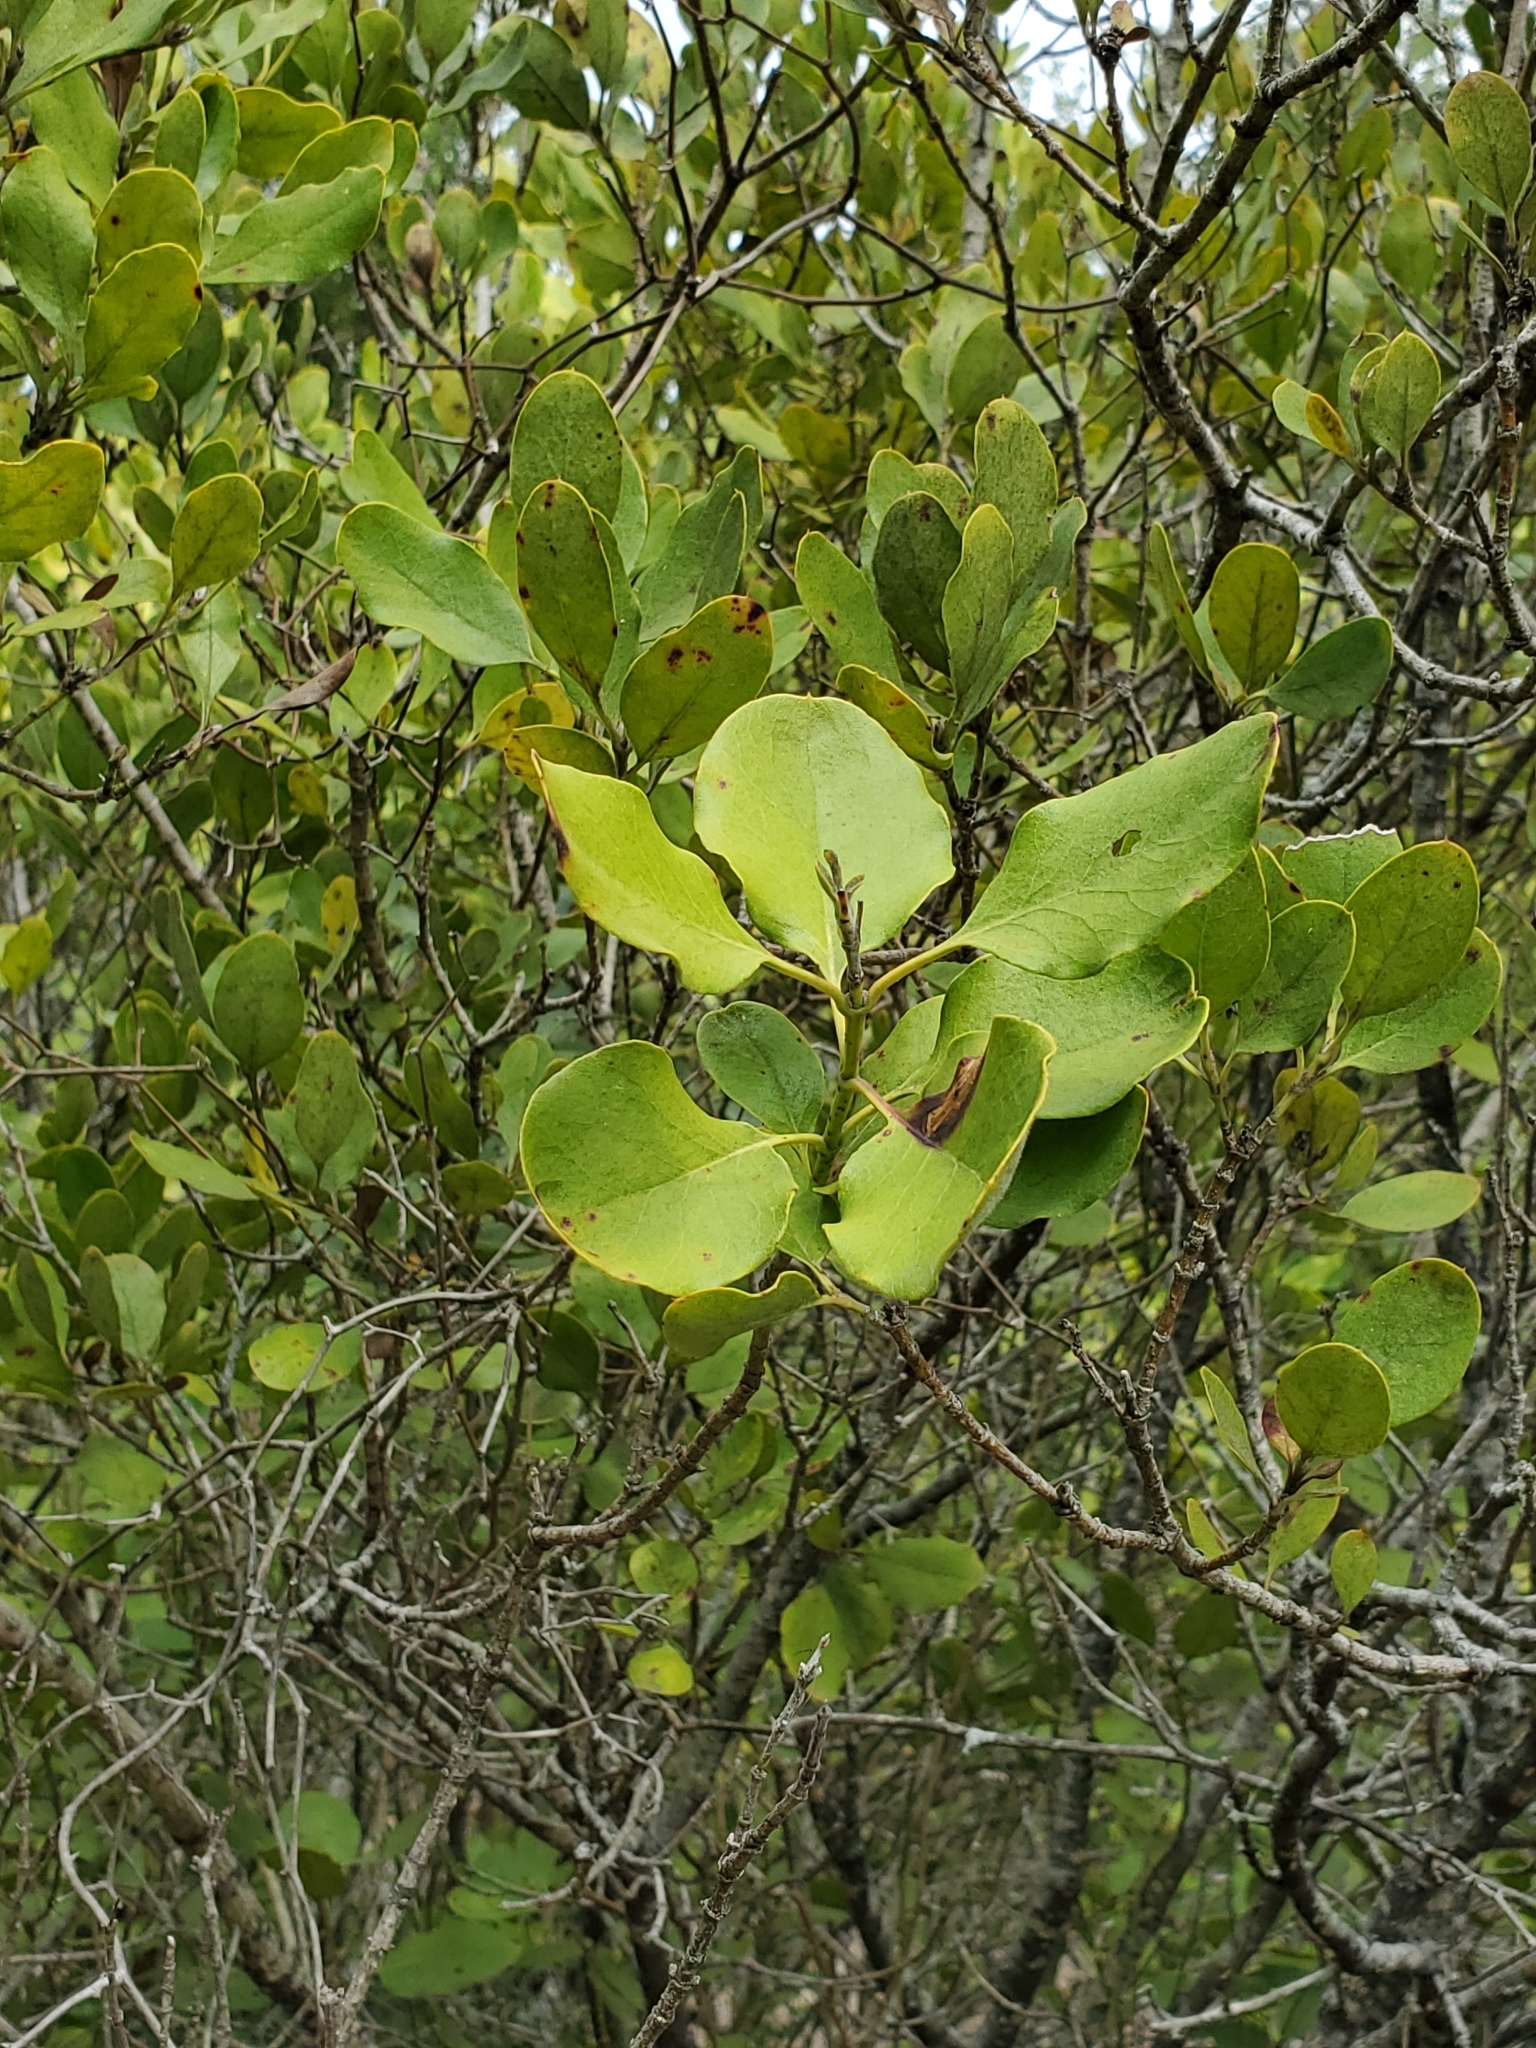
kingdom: Plantae
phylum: Tracheophyta
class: Magnoliopsida
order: Garryales
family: Garryaceae
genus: Garrya
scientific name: Garrya lindheimeri
